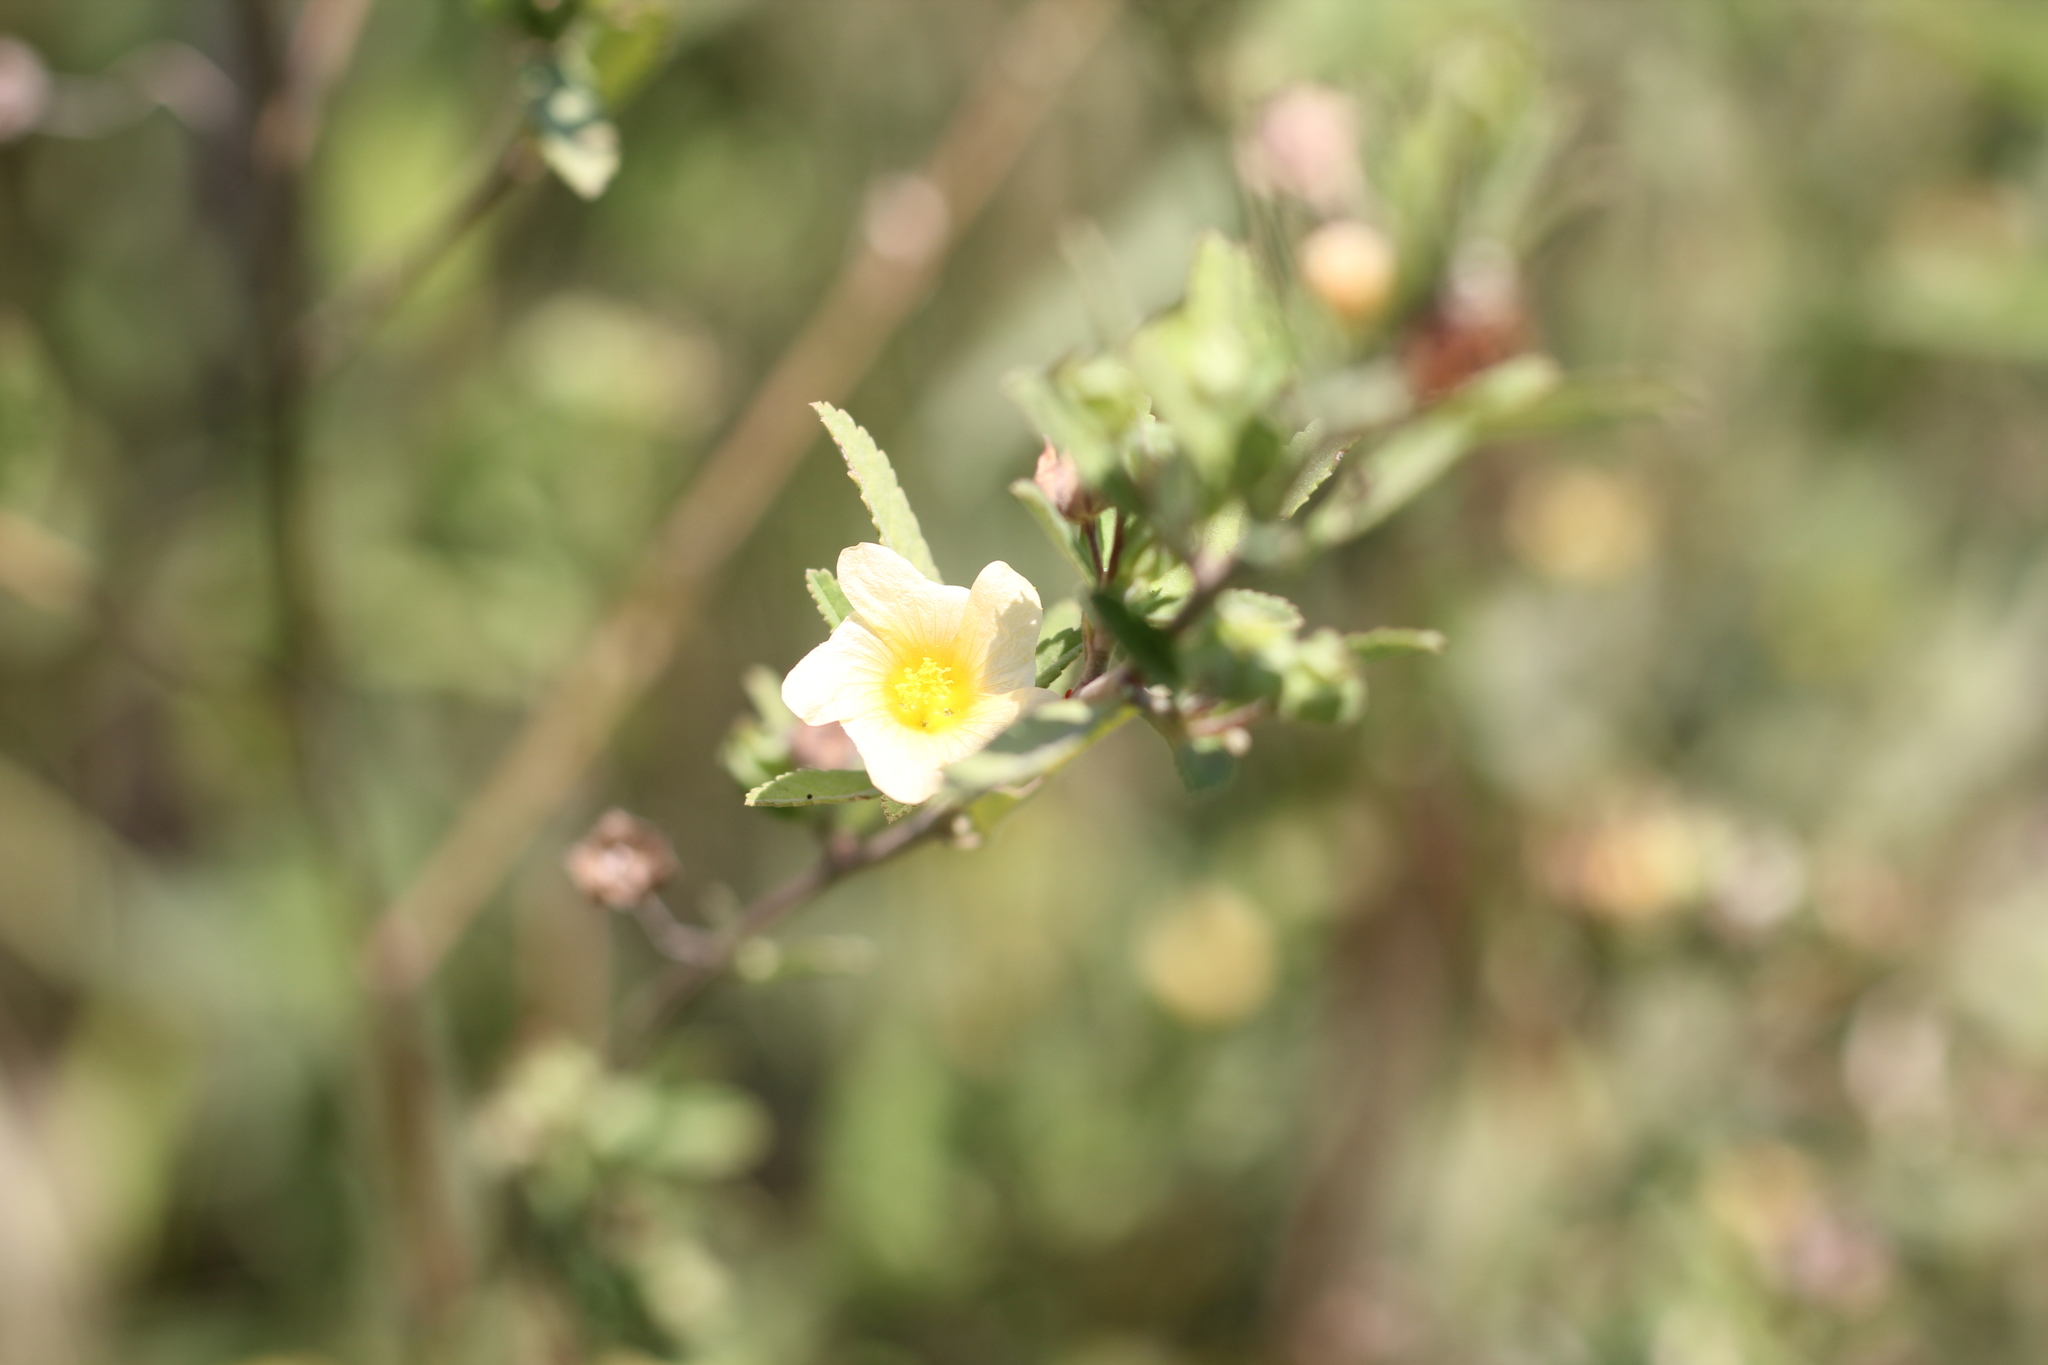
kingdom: Plantae
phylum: Tracheophyta
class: Magnoliopsida
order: Malvales
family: Malvaceae
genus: Sida
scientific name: Sida rhombifolia
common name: Queensland-hemp
